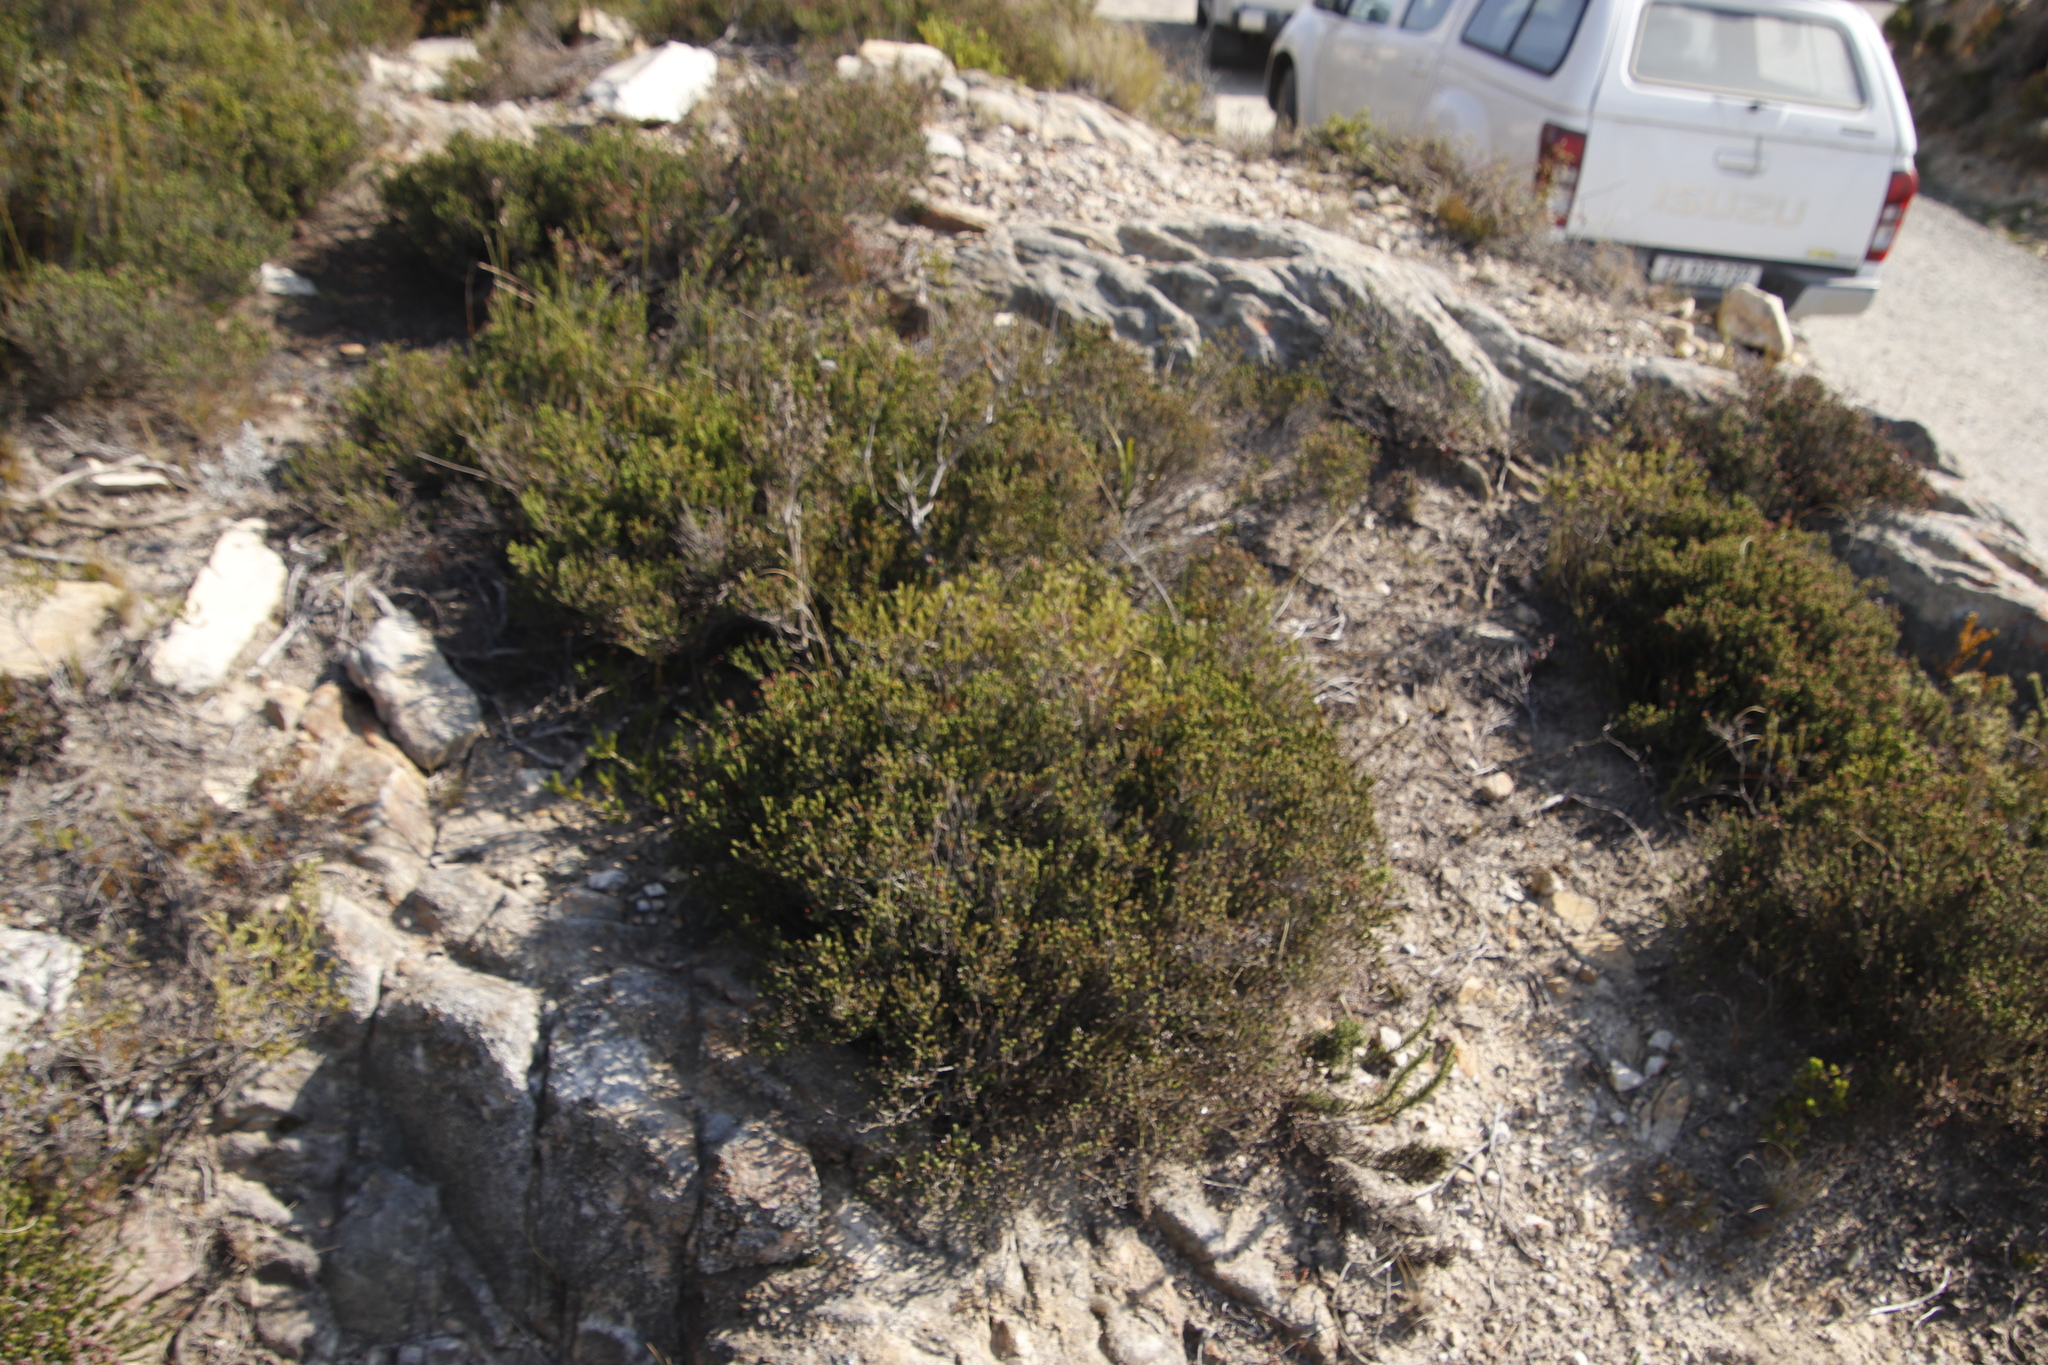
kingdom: Plantae
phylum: Tracheophyta
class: Magnoliopsida
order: Ericales
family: Ericaceae
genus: Erica
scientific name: Erica petraea
